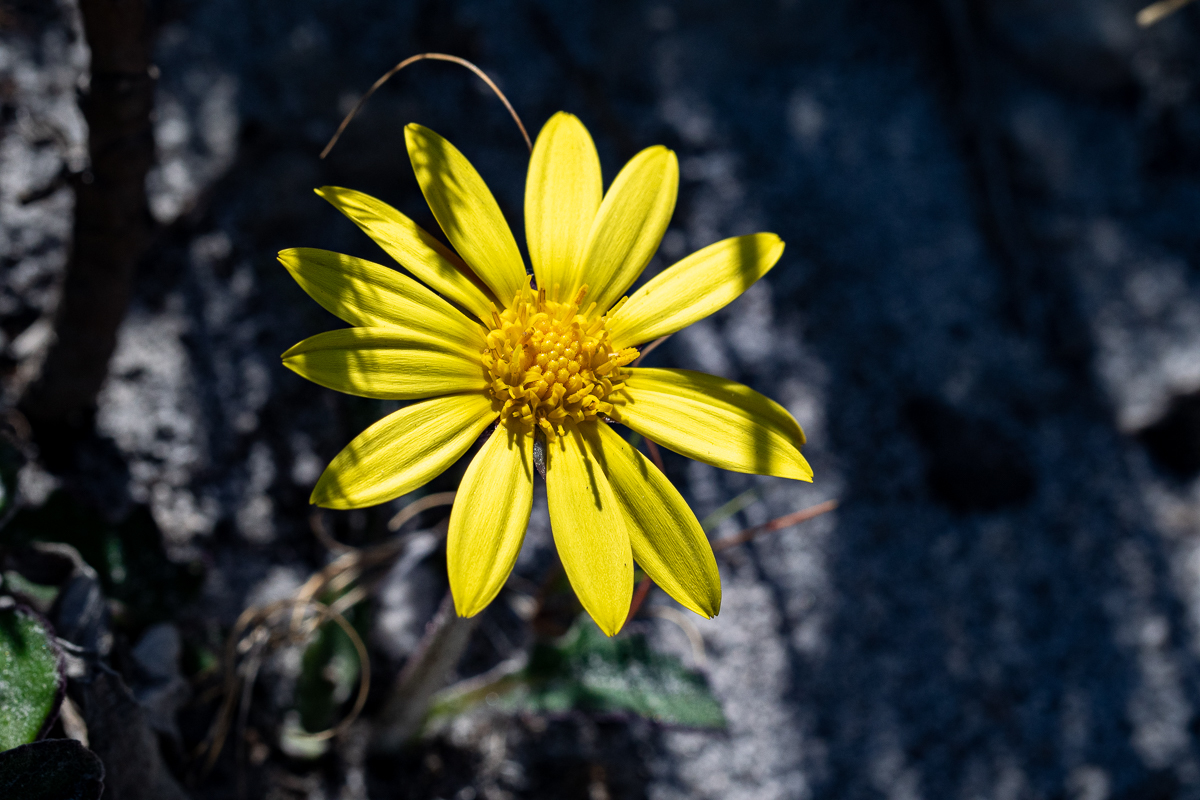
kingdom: Plantae
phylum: Tracheophyta
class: Magnoliopsida
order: Asterales
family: Asteraceae
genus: Haplocarpha
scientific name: Haplocarpha lanata
